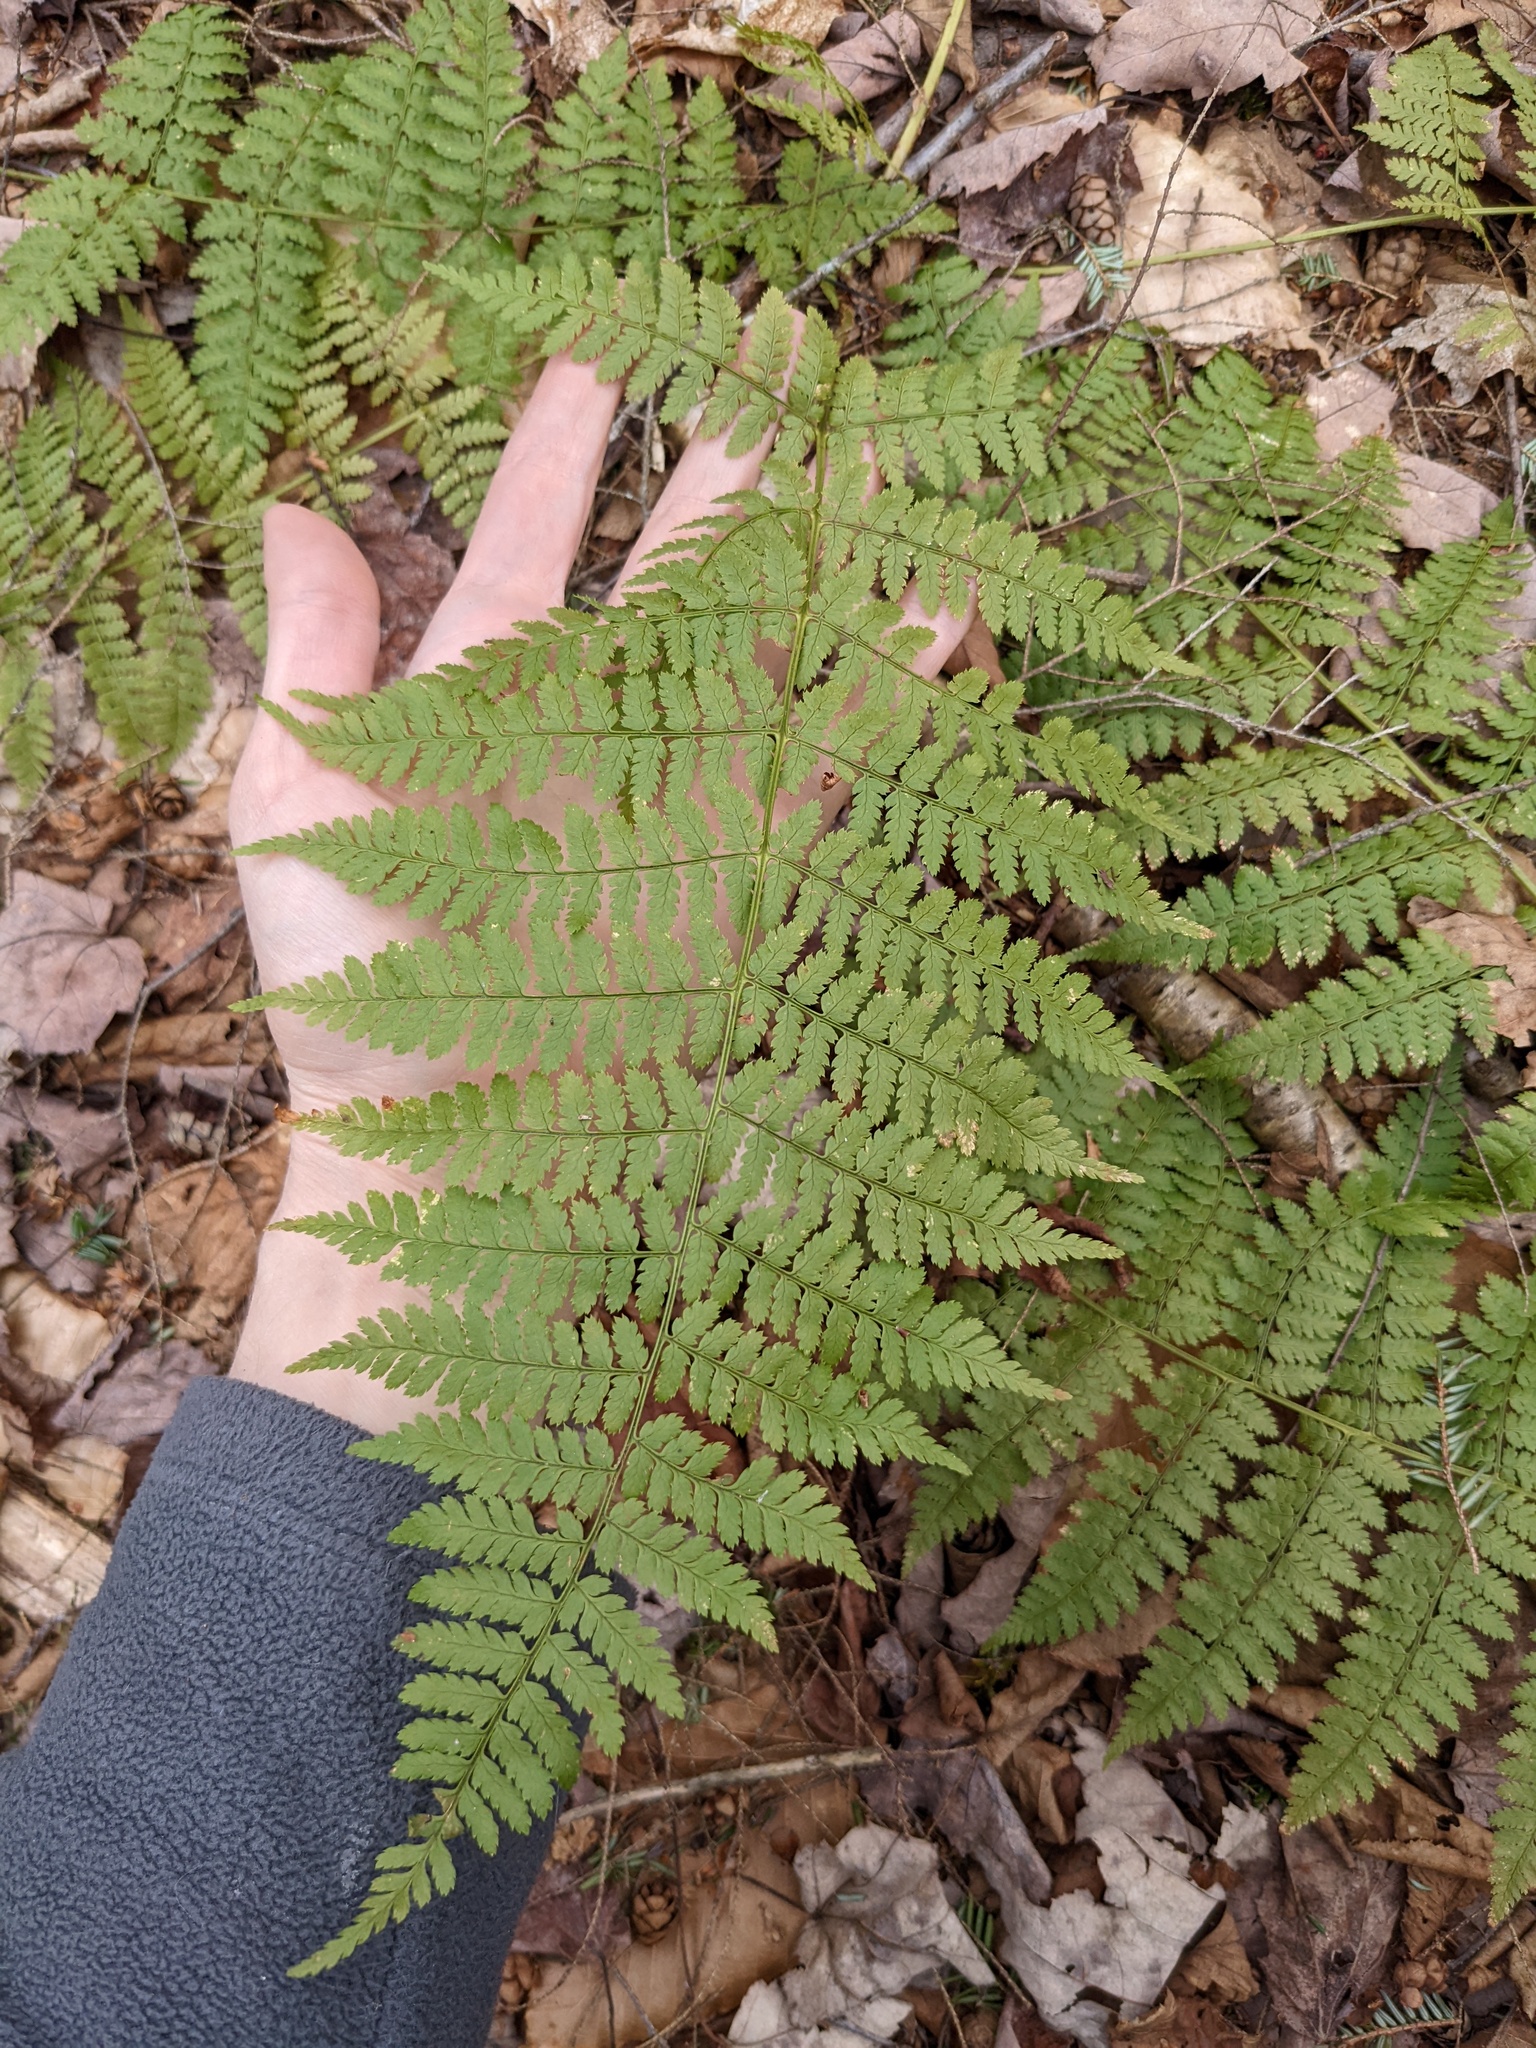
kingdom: Plantae
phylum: Tracheophyta
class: Polypodiopsida
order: Polypodiales
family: Dryopteridaceae
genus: Dryopteris
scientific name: Dryopteris intermedia
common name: Evergreen wood fern
